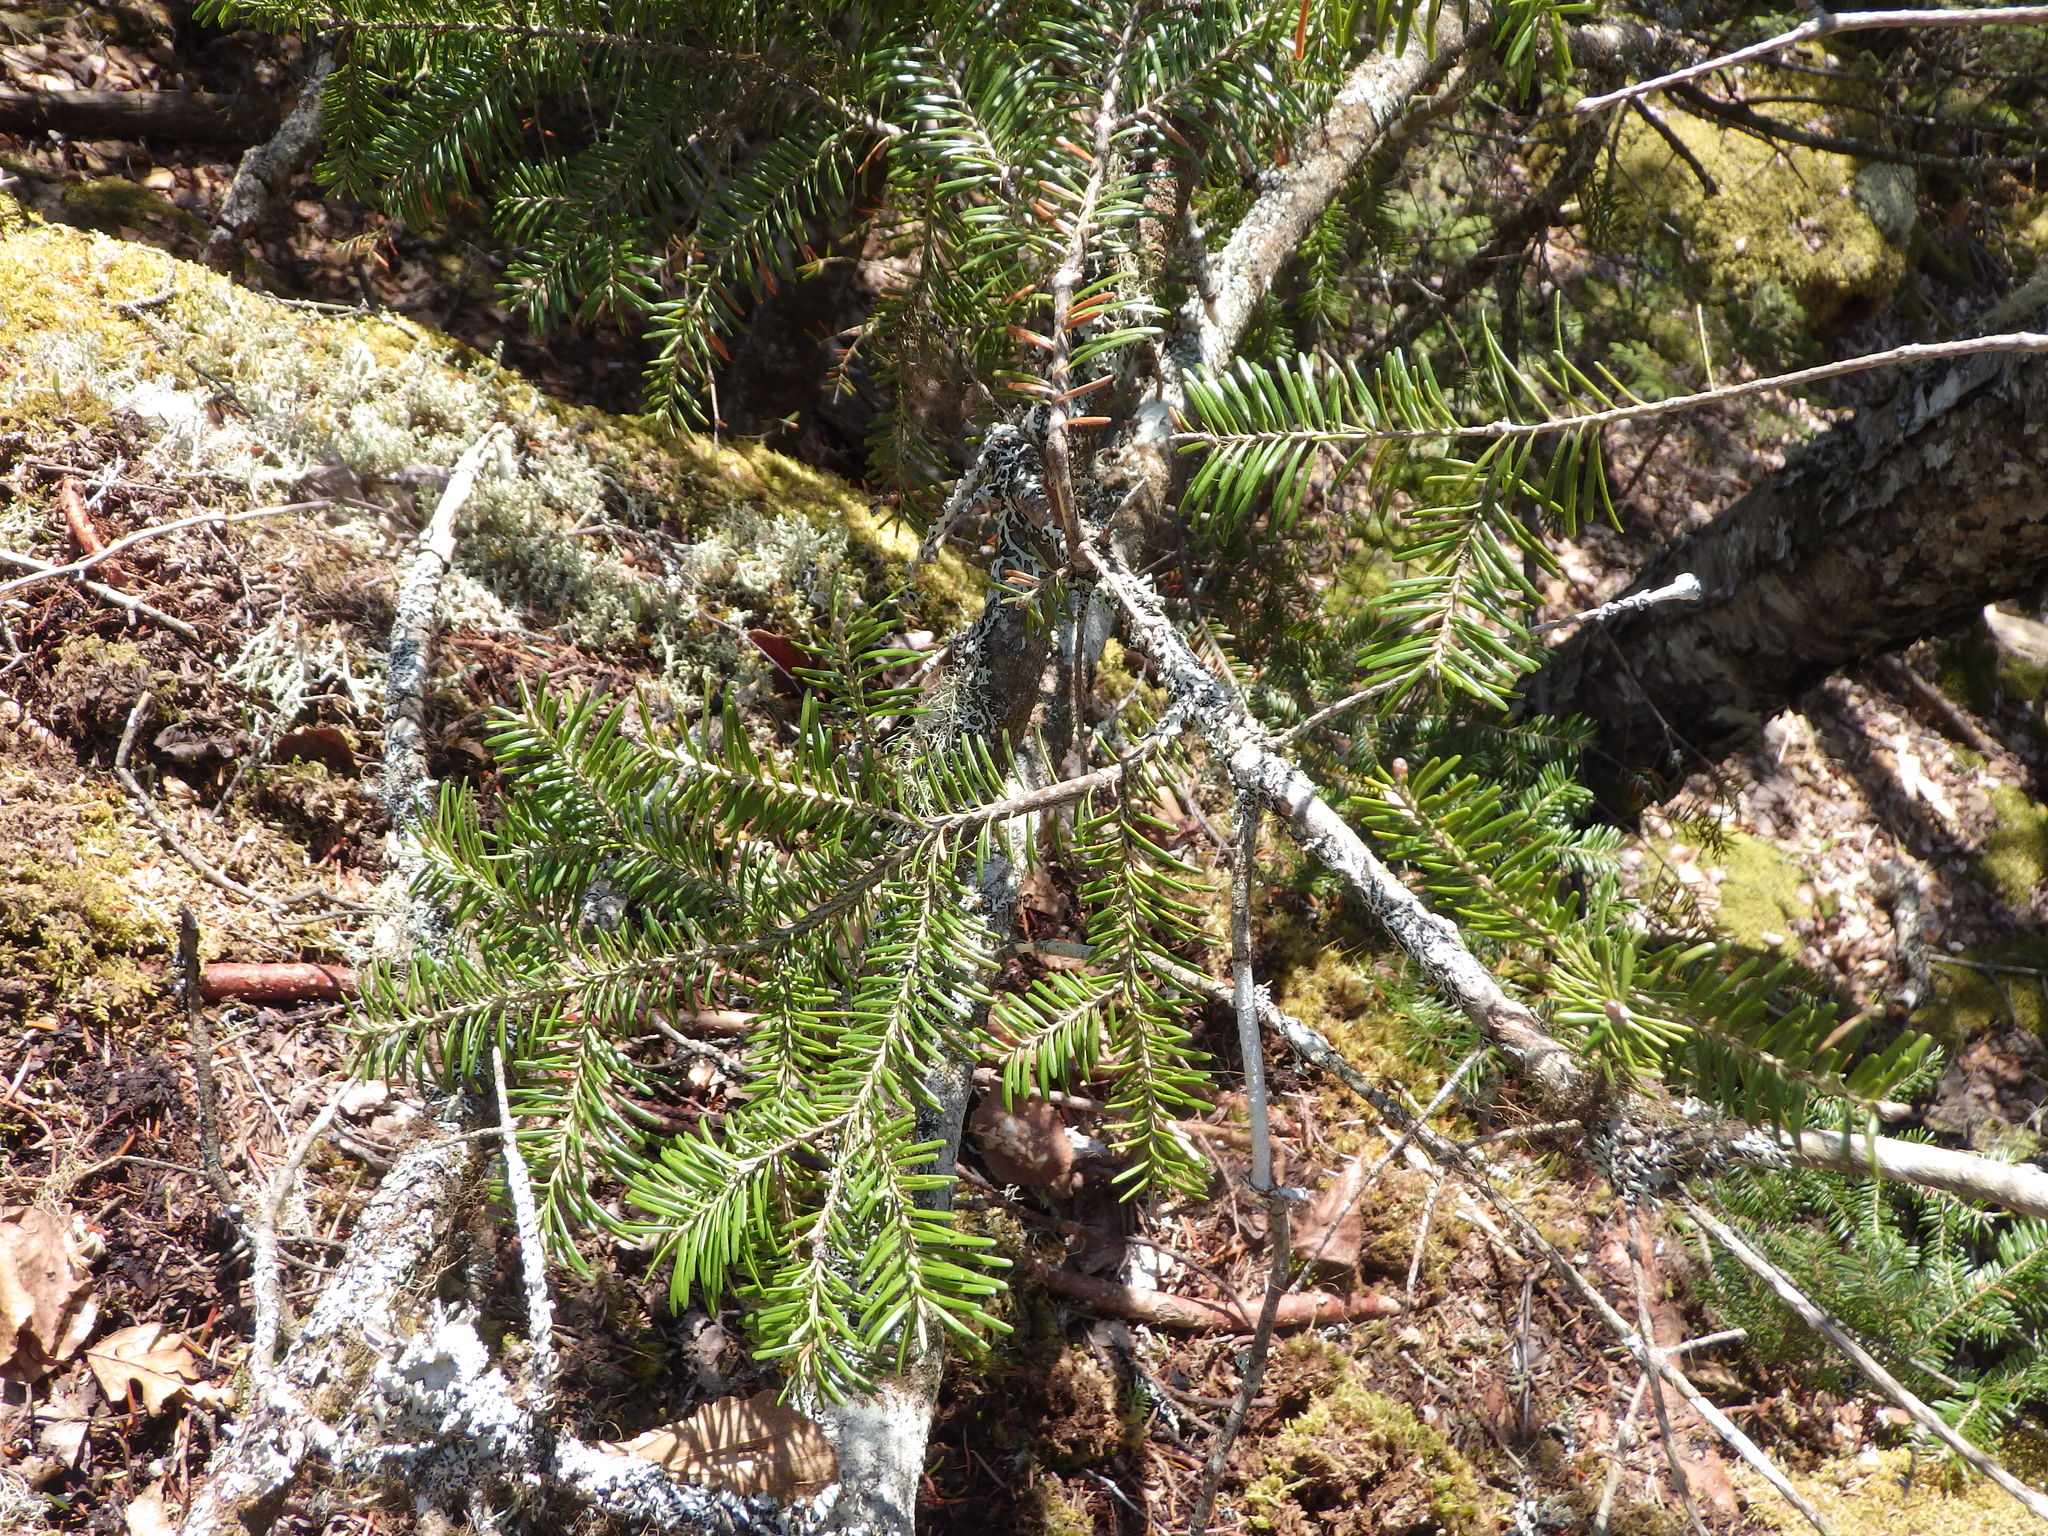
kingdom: Plantae
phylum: Tracheophyta
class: Pinopsida
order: Pinales
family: Pinaceae
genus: Abies
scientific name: Abies balsamea
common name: Balsam fir
